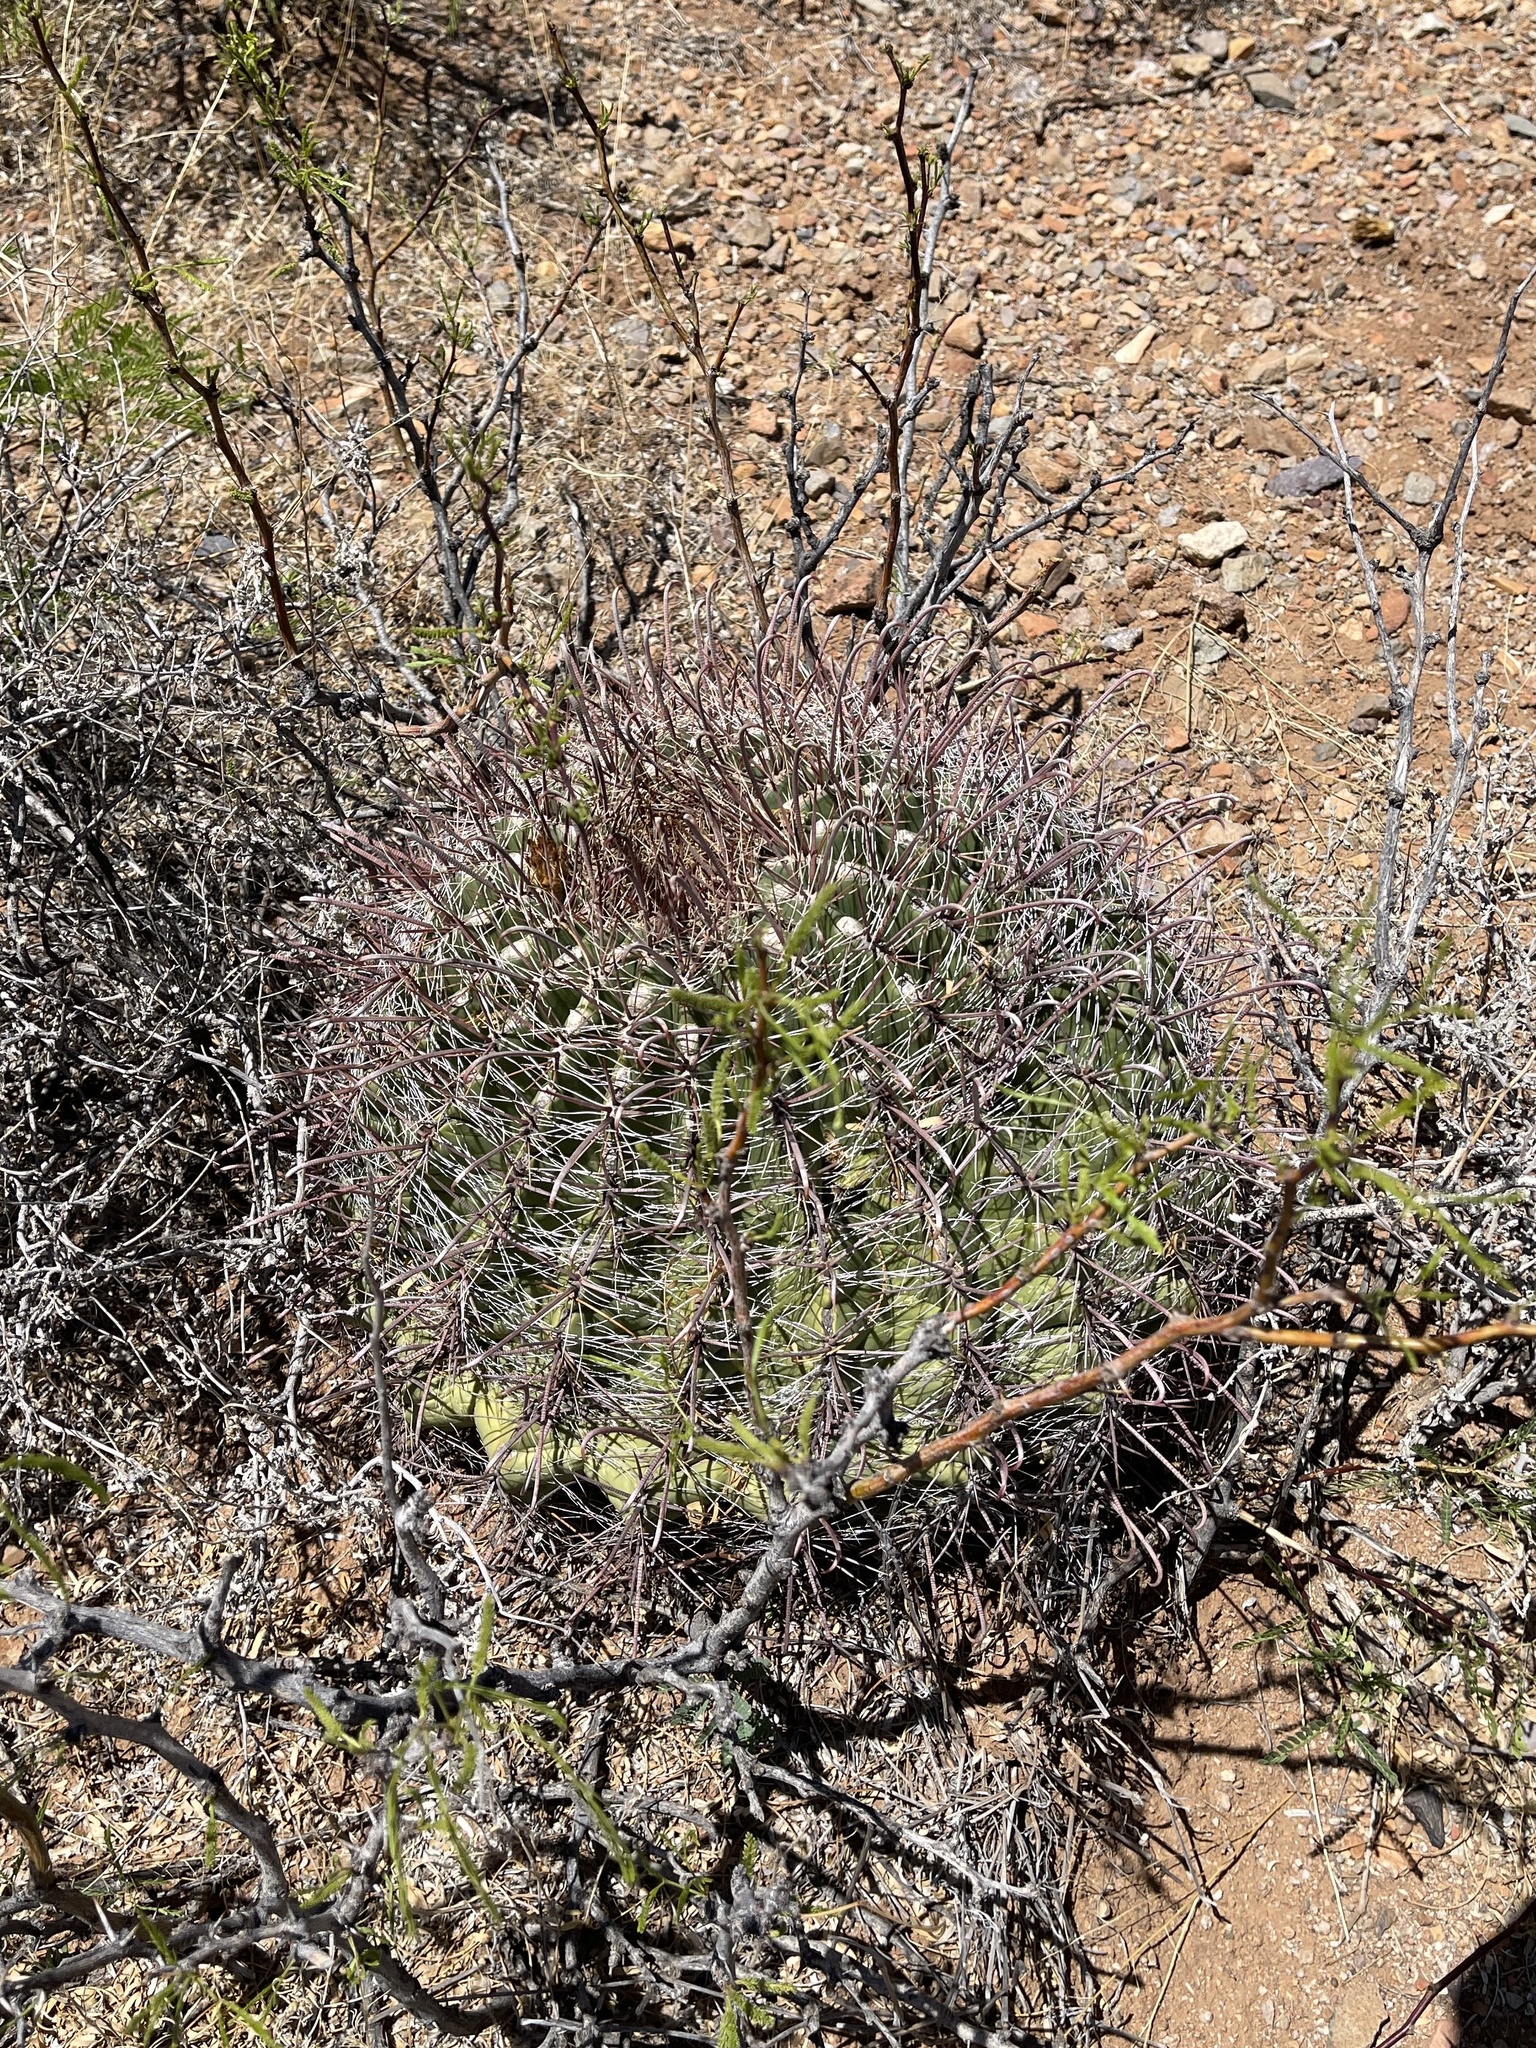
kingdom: Plantae
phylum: Tracheophyta
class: Magnoliopsida
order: Caryophyllales
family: Cactaceae
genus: Ferocactus
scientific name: Ferocactus wislizeni
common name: Candy barrel cactus
